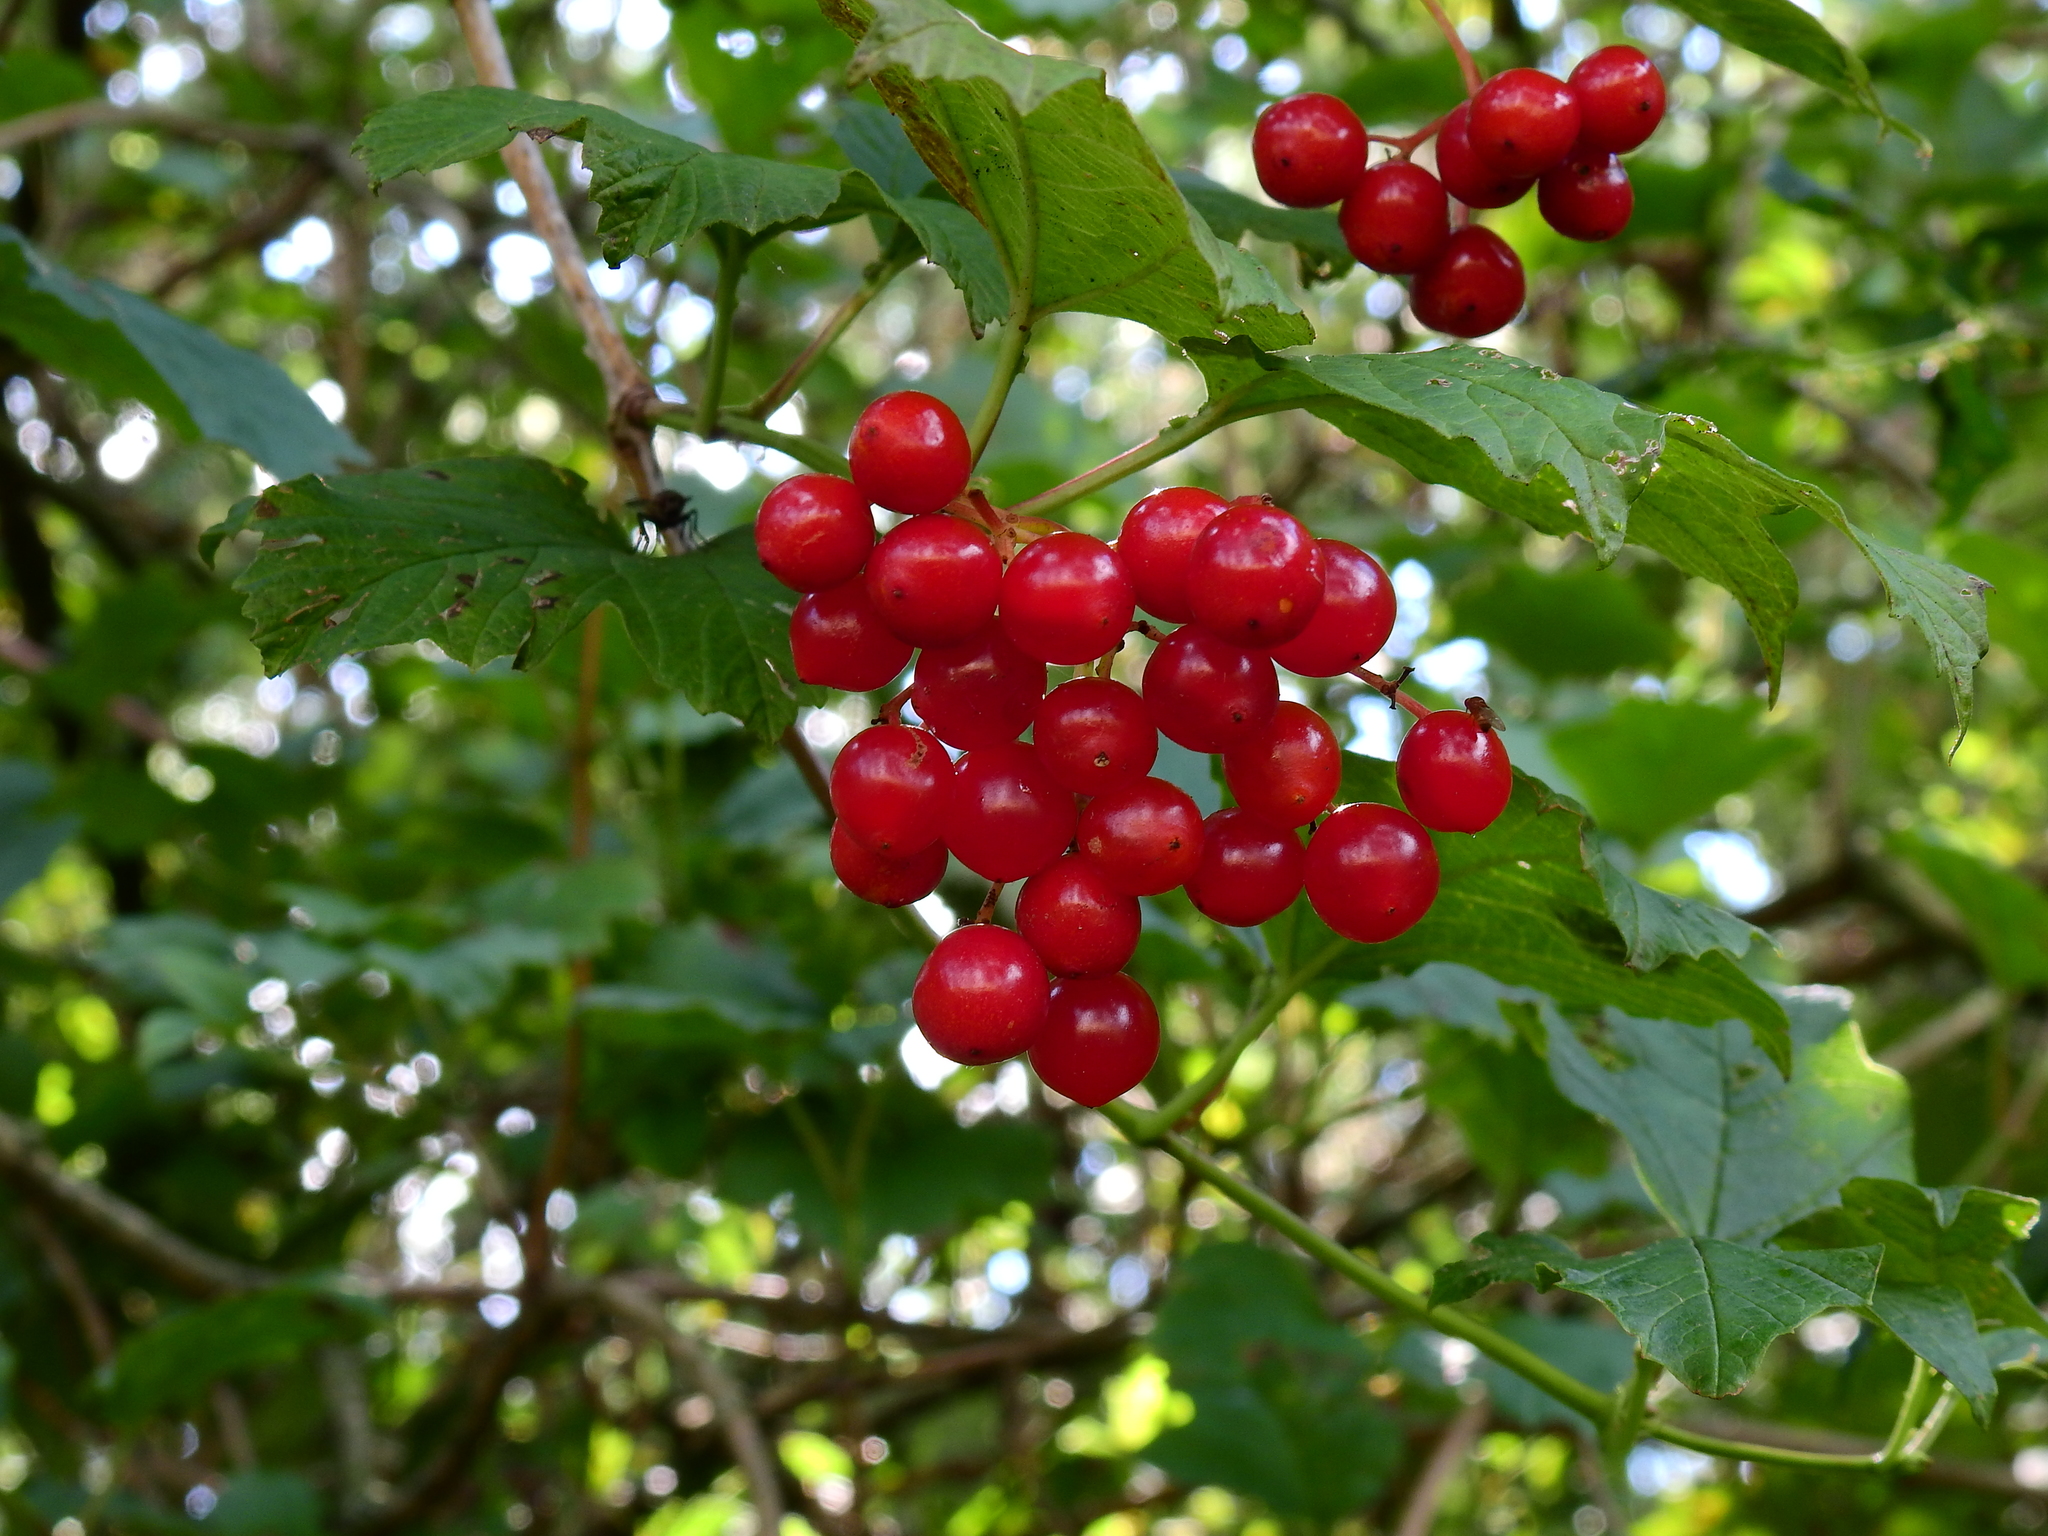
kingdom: Plantae
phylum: Tracheophyta
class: Magnoliopsida
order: Dipsacales
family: Viburnaceae
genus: Viburnum
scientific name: Viburnum opulus
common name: Guelder-rose
